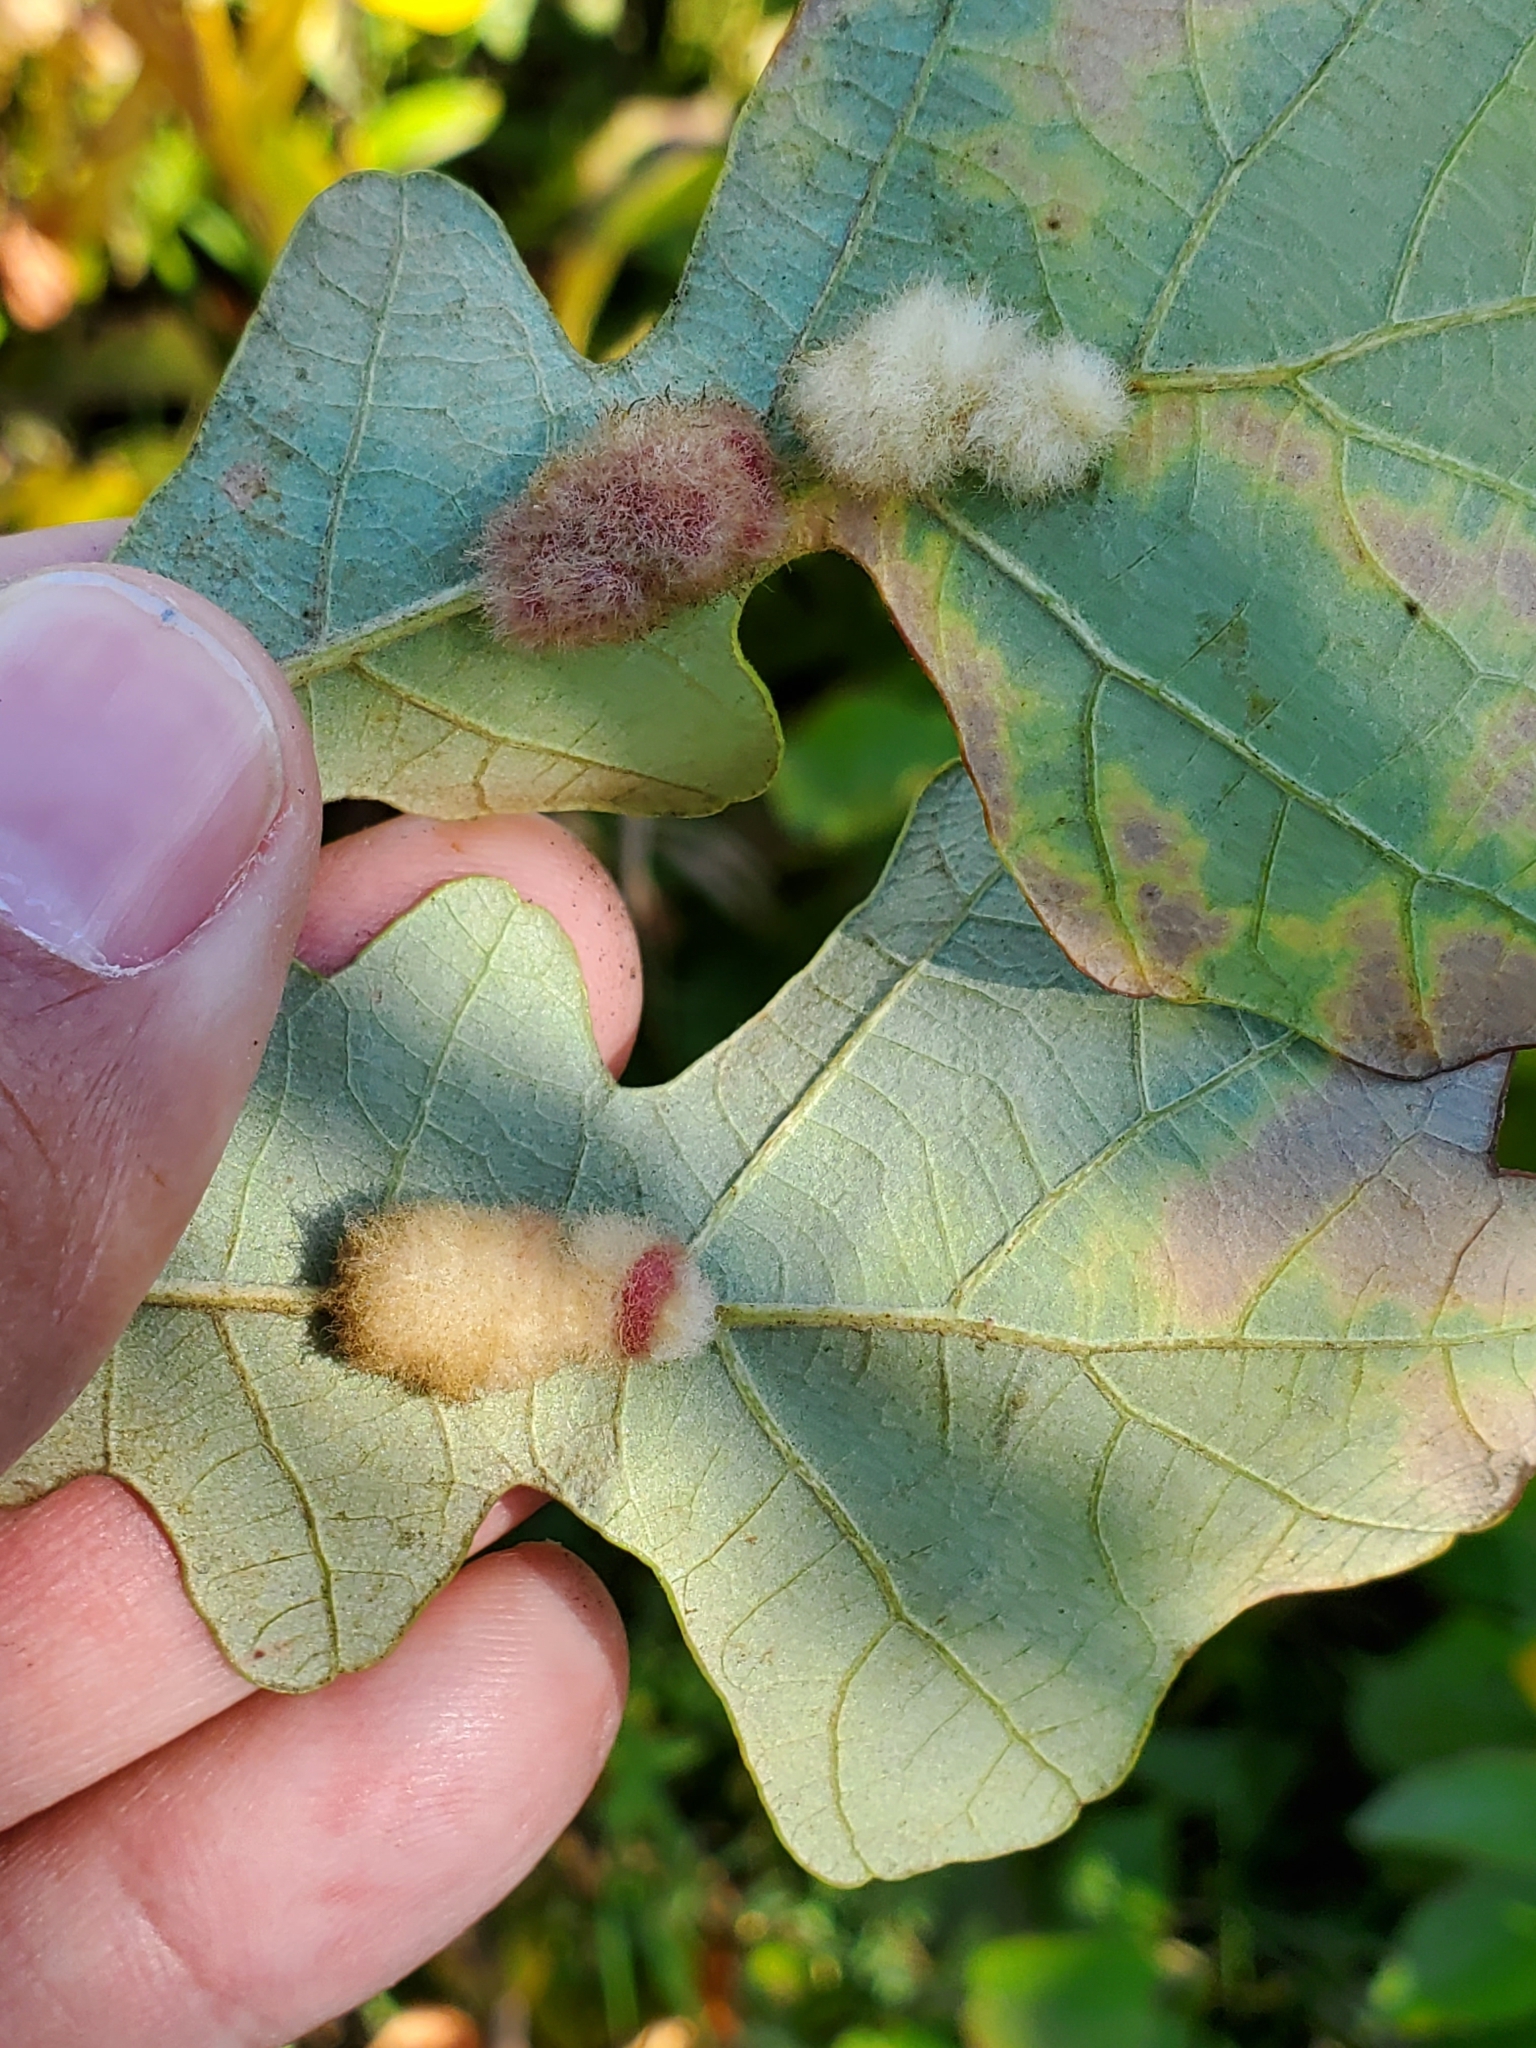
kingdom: Animalia
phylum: Arthropoda
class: Insecta
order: Hymenoptera
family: Cynipidae
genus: Andricus
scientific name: Andricus Druon ignotum
